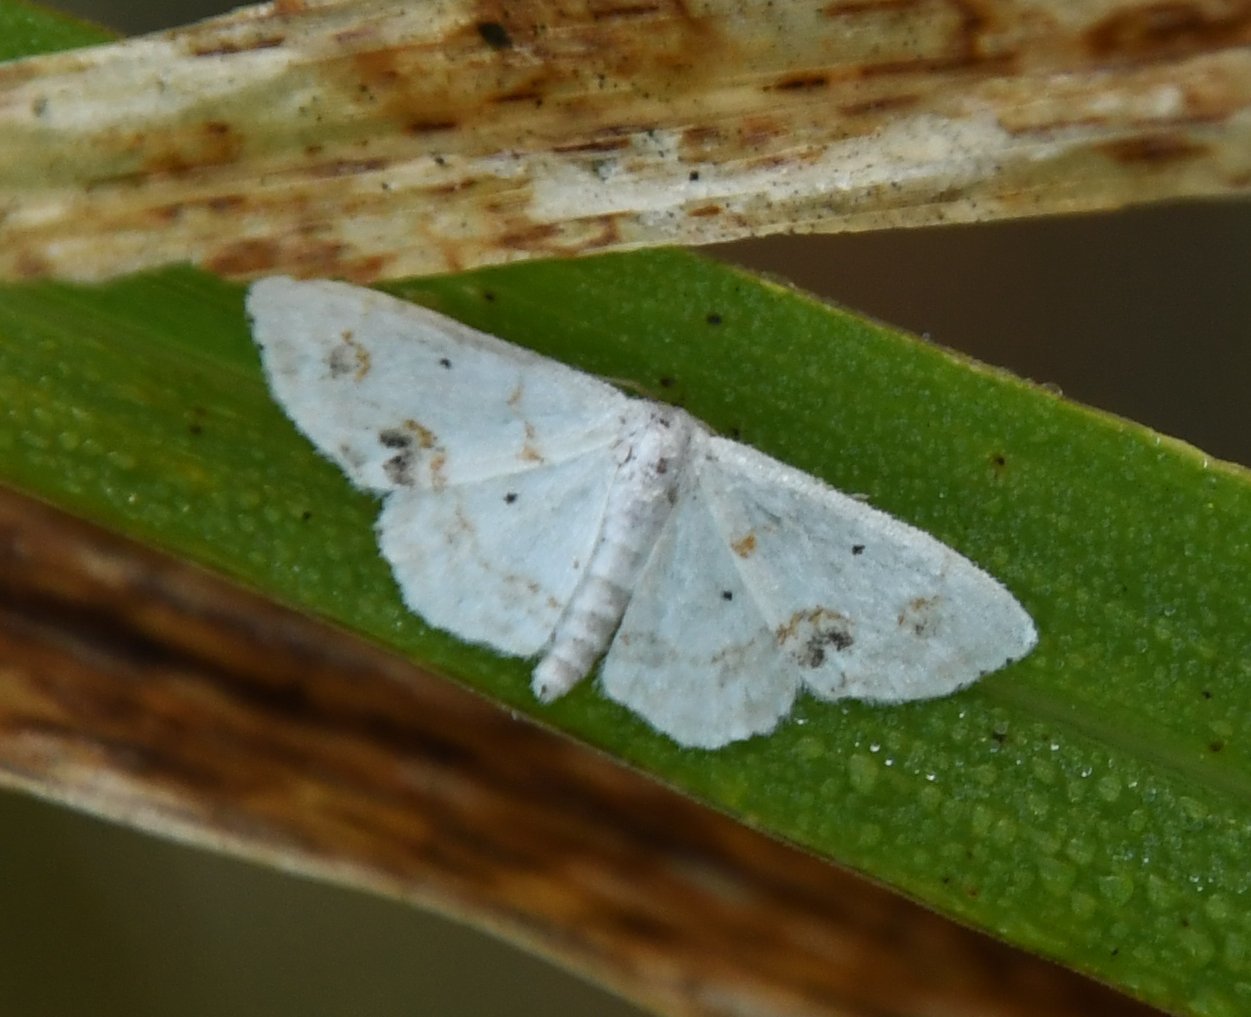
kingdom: Animalia
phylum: Arthropoda
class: Insecta
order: Lepidoptera
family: Geometridae
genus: Scopula
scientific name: Scopula lautaria
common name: Small frosted wave moth
